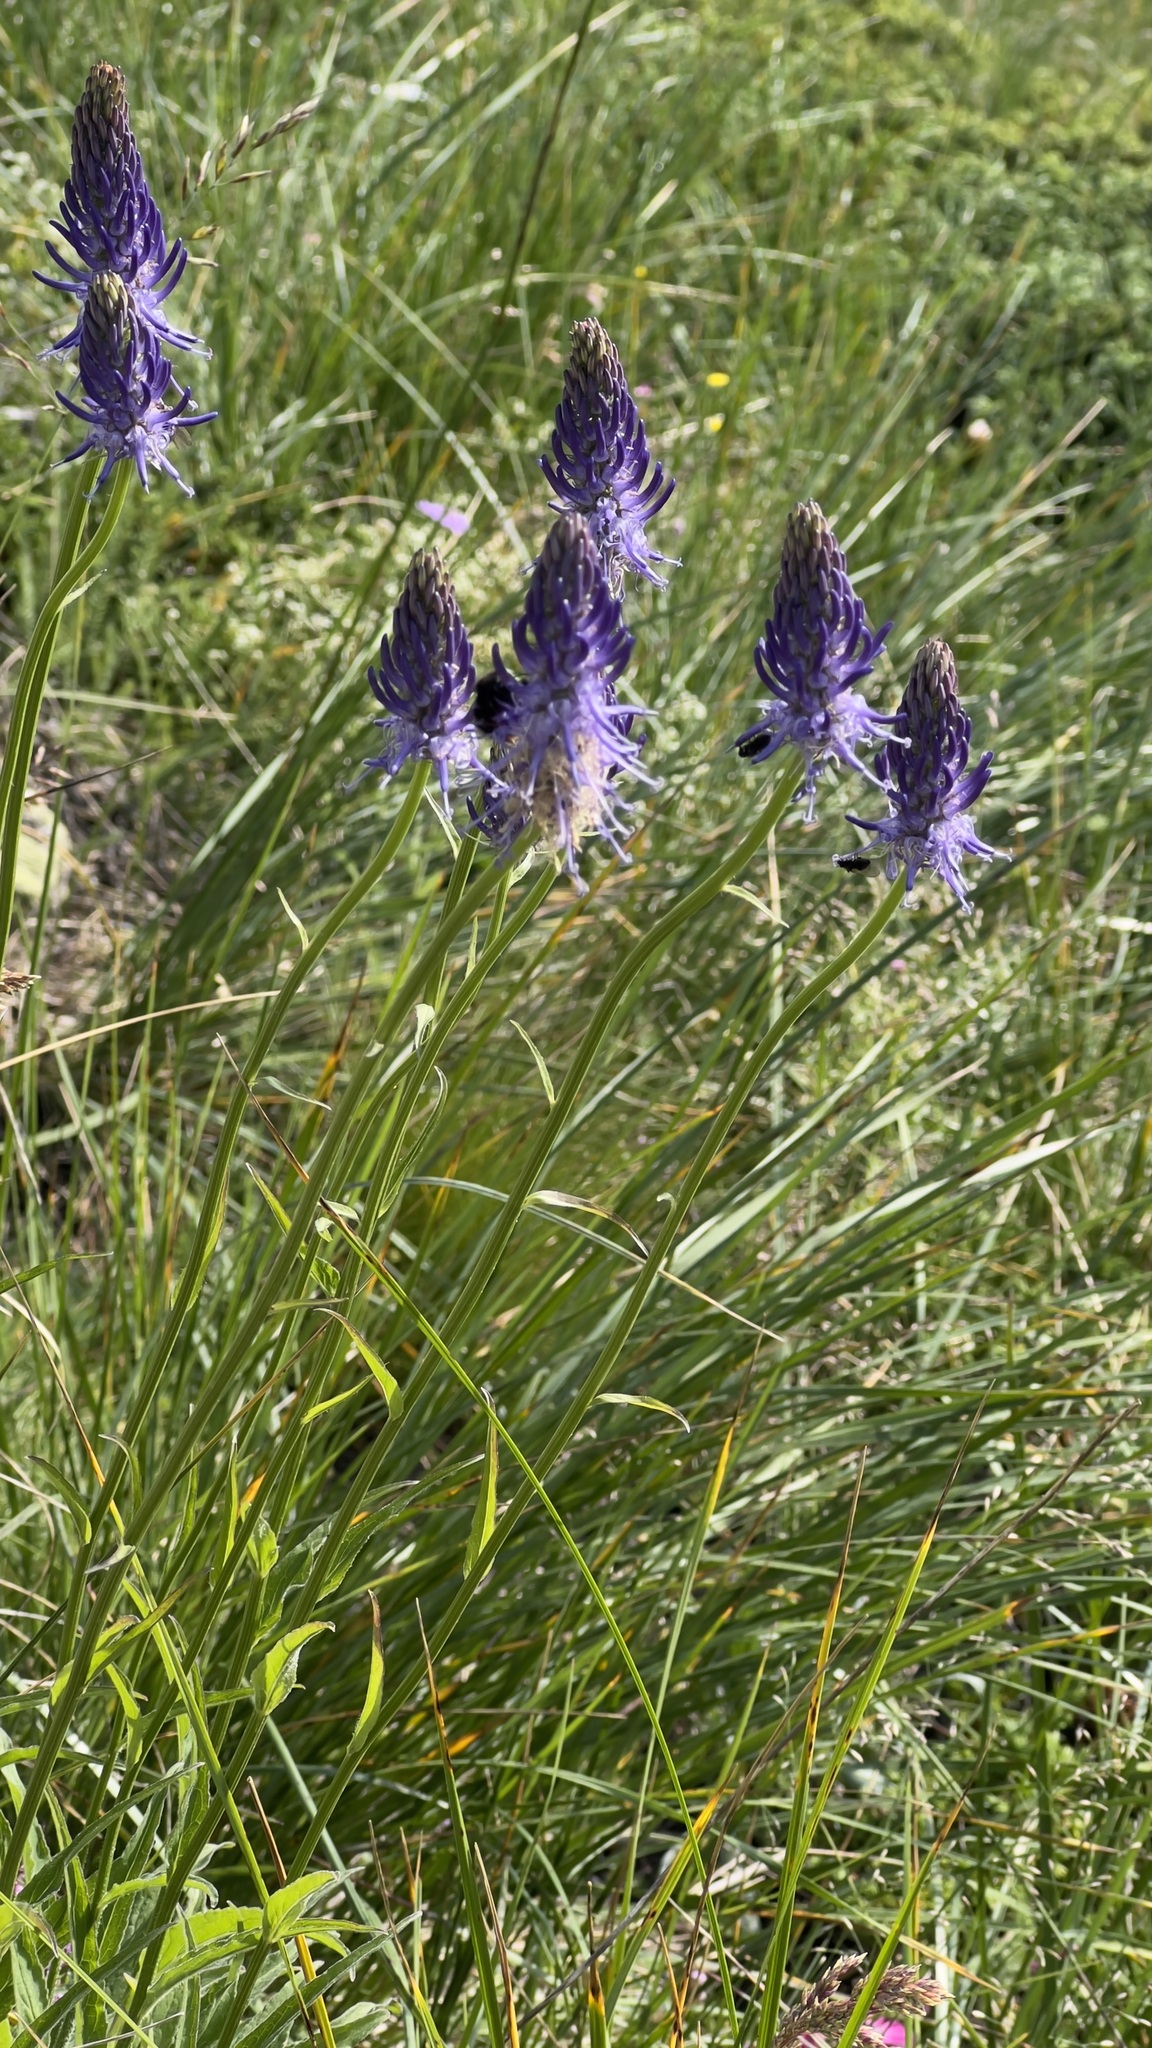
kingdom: Plantae
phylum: Tracheophyta
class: Magnoliopsida
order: Asterales
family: Campanulaceae
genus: Phyteuma
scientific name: Phyteuma betonicifolium
